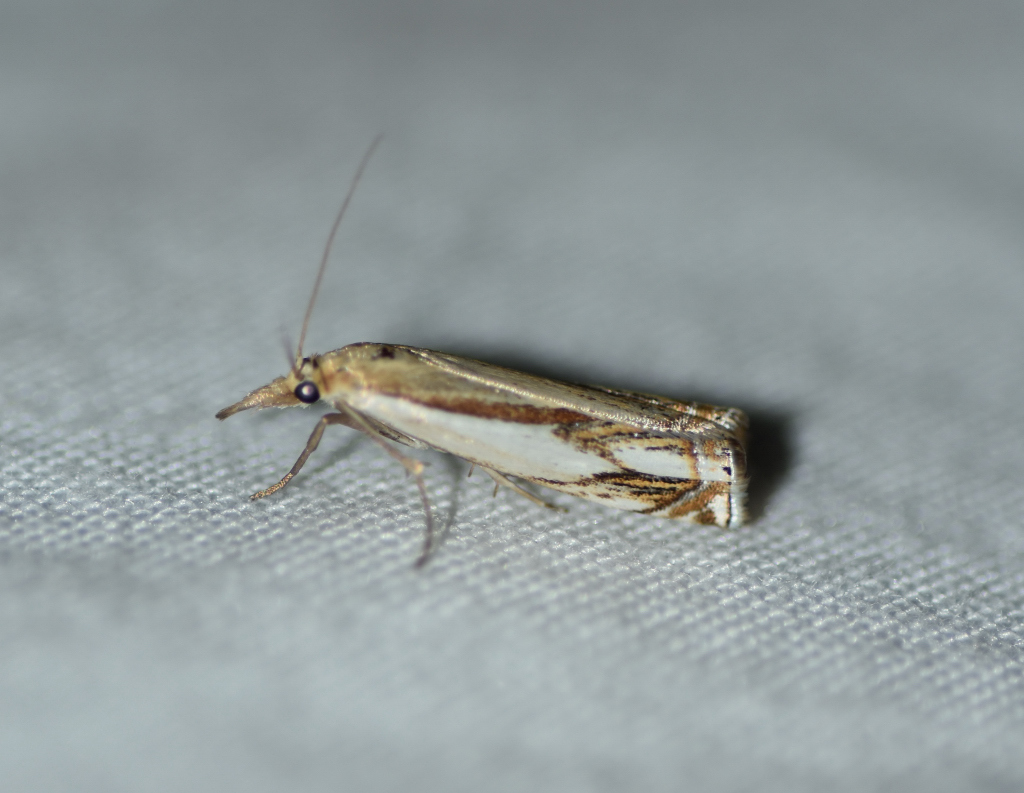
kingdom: Animalia
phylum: Arthropoda
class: Insecta
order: Lepidoptera
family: Crambidae
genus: Crambus
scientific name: Crambus agitatellus
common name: Double-banded grass-veneer
